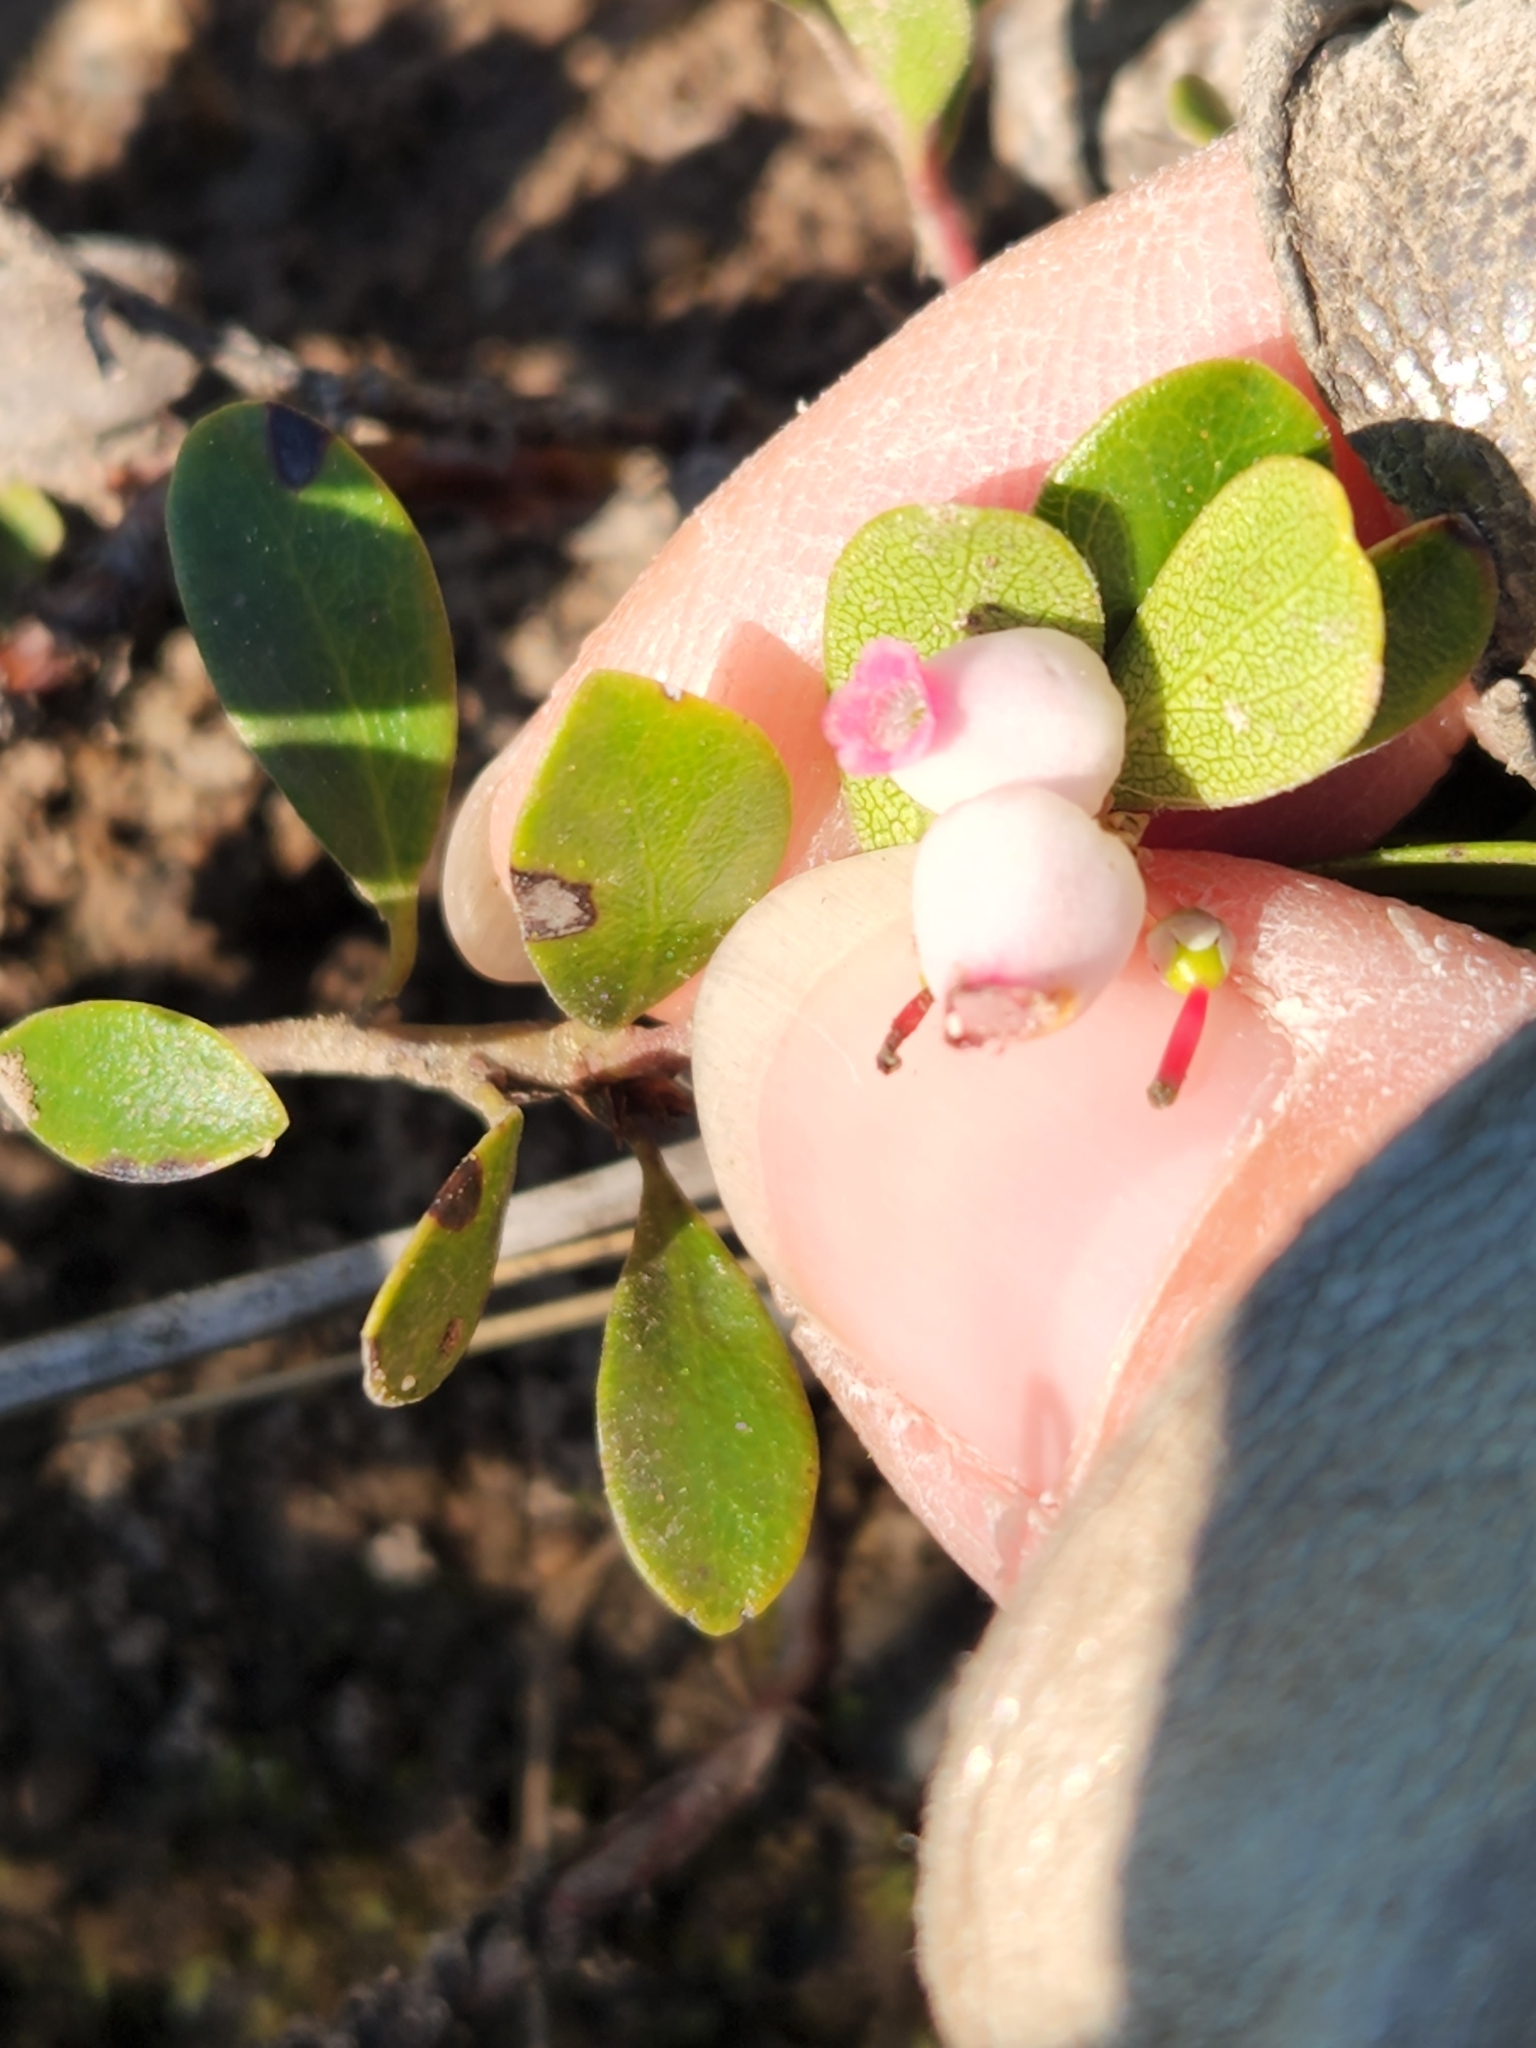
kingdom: Plantae
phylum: Tracheophyta
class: Magnoliopsida
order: Ericales
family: Ericaceae
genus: Arctostaphylos
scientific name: Arctostaphylos uva-ursi
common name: Bearberry
